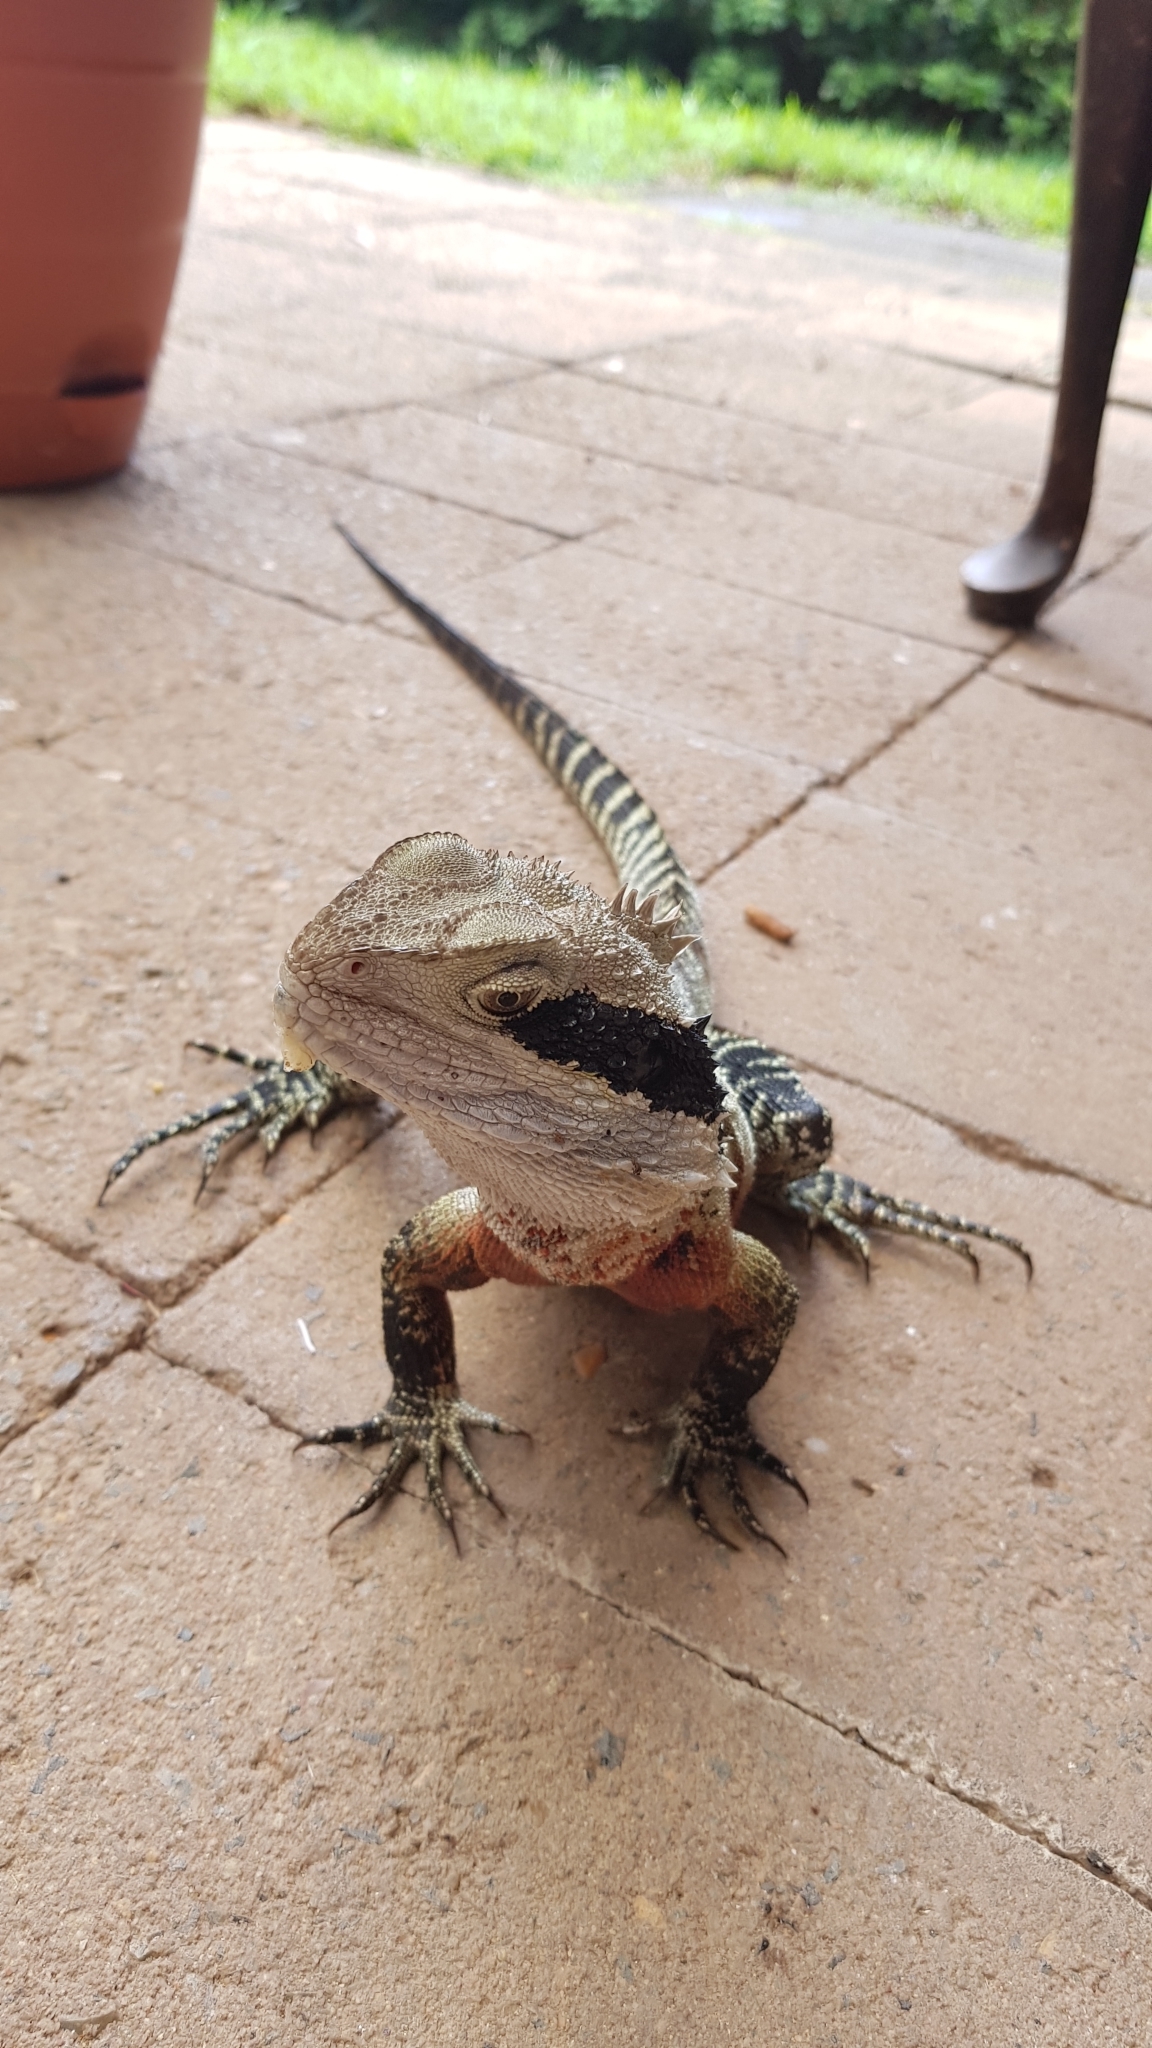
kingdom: Animalia
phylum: Chordata
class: Squamata
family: Agamidae
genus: Intellagama
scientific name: Intellagama lesueurii
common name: Eastern water dragon
